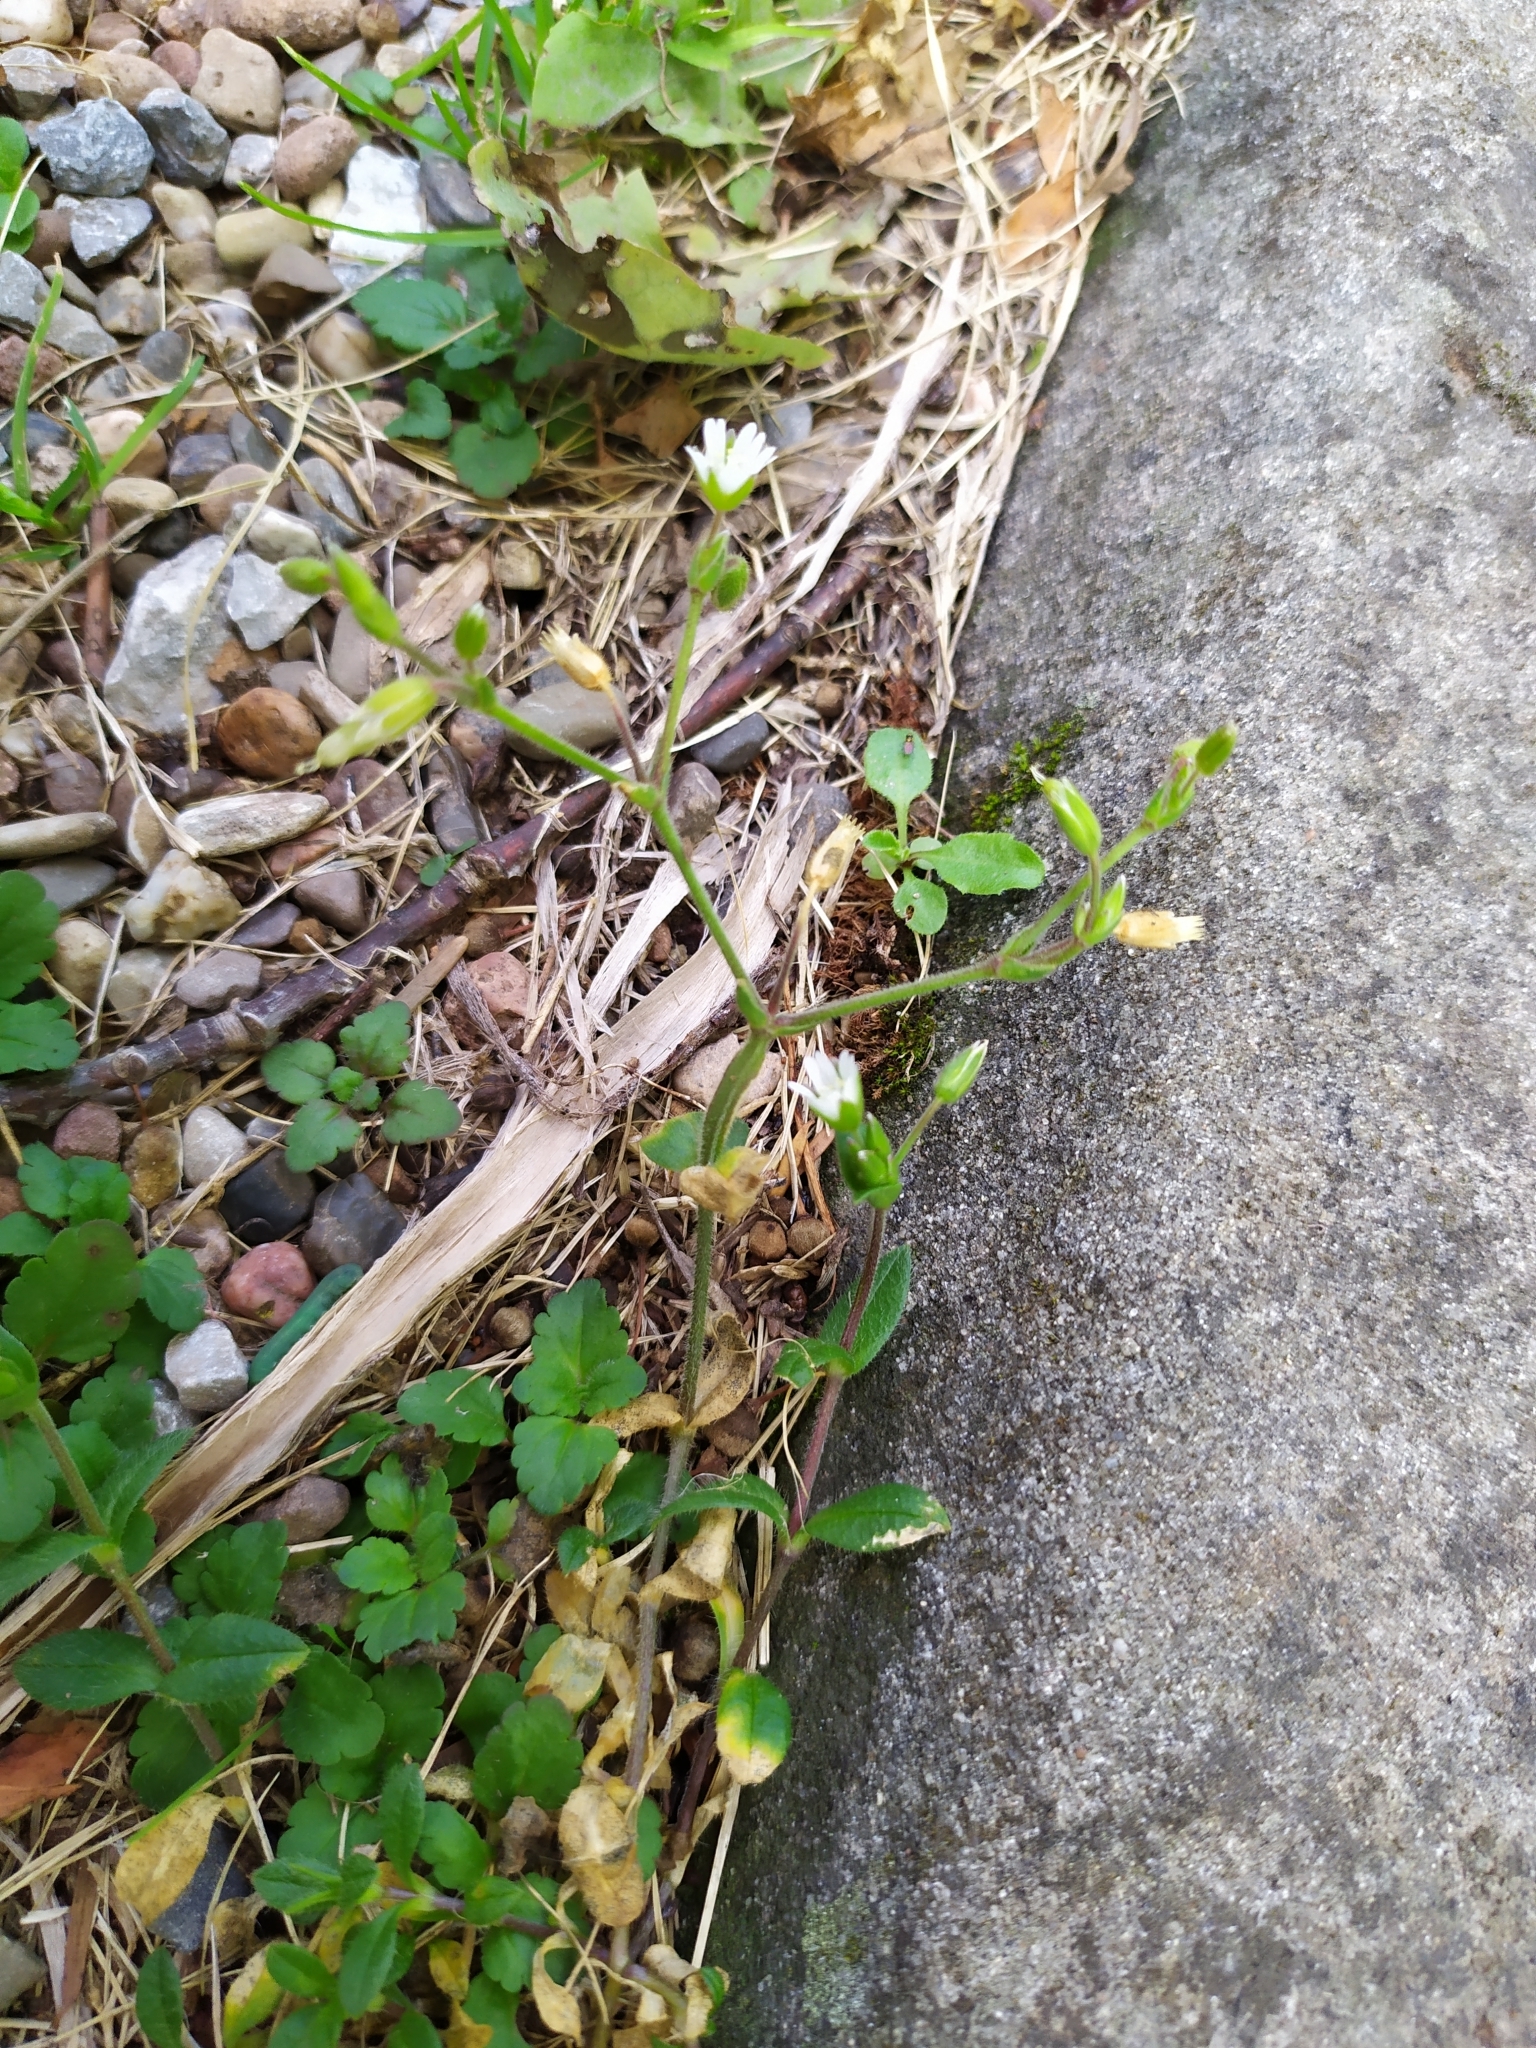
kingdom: Plantae
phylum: Tracheophyta
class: Magnoliopsida
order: Caryophyllales
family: Caryophyllaceae
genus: Cerastium
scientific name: Cerastium holosteoides
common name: Big chickweed
